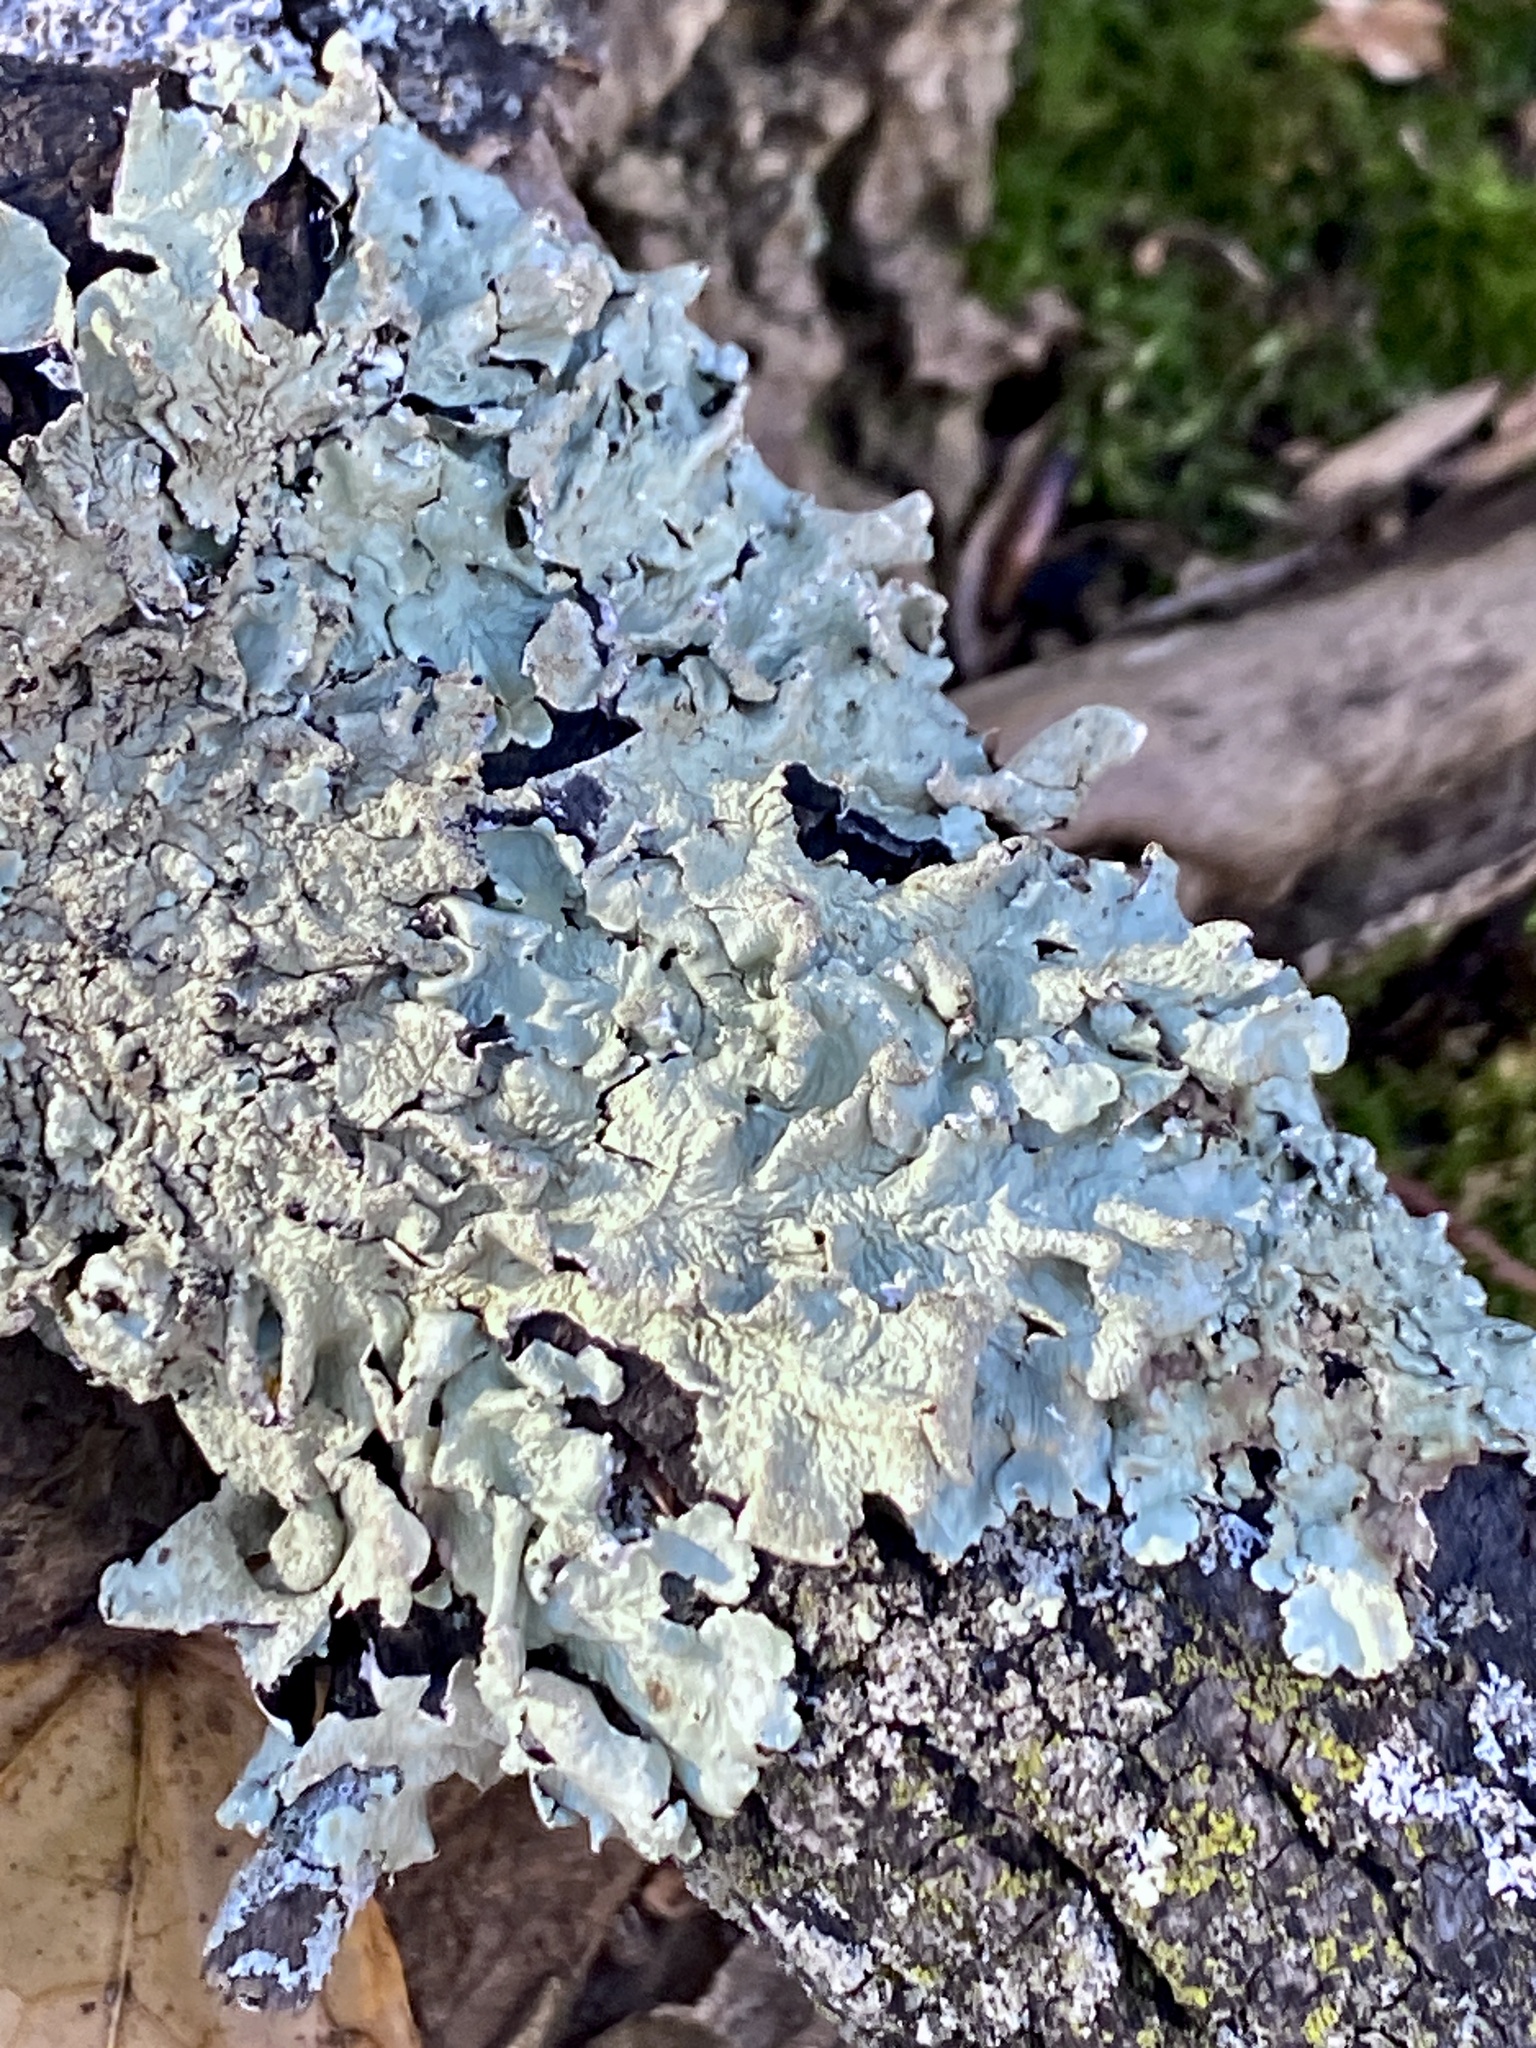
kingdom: Fungi
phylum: Ascomycota
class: Lecanoromycetes
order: Lecanorales
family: Parmeliaceae
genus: Flavoparmelia
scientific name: Flavoparmelia caperata
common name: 40-mile per hour lichen
